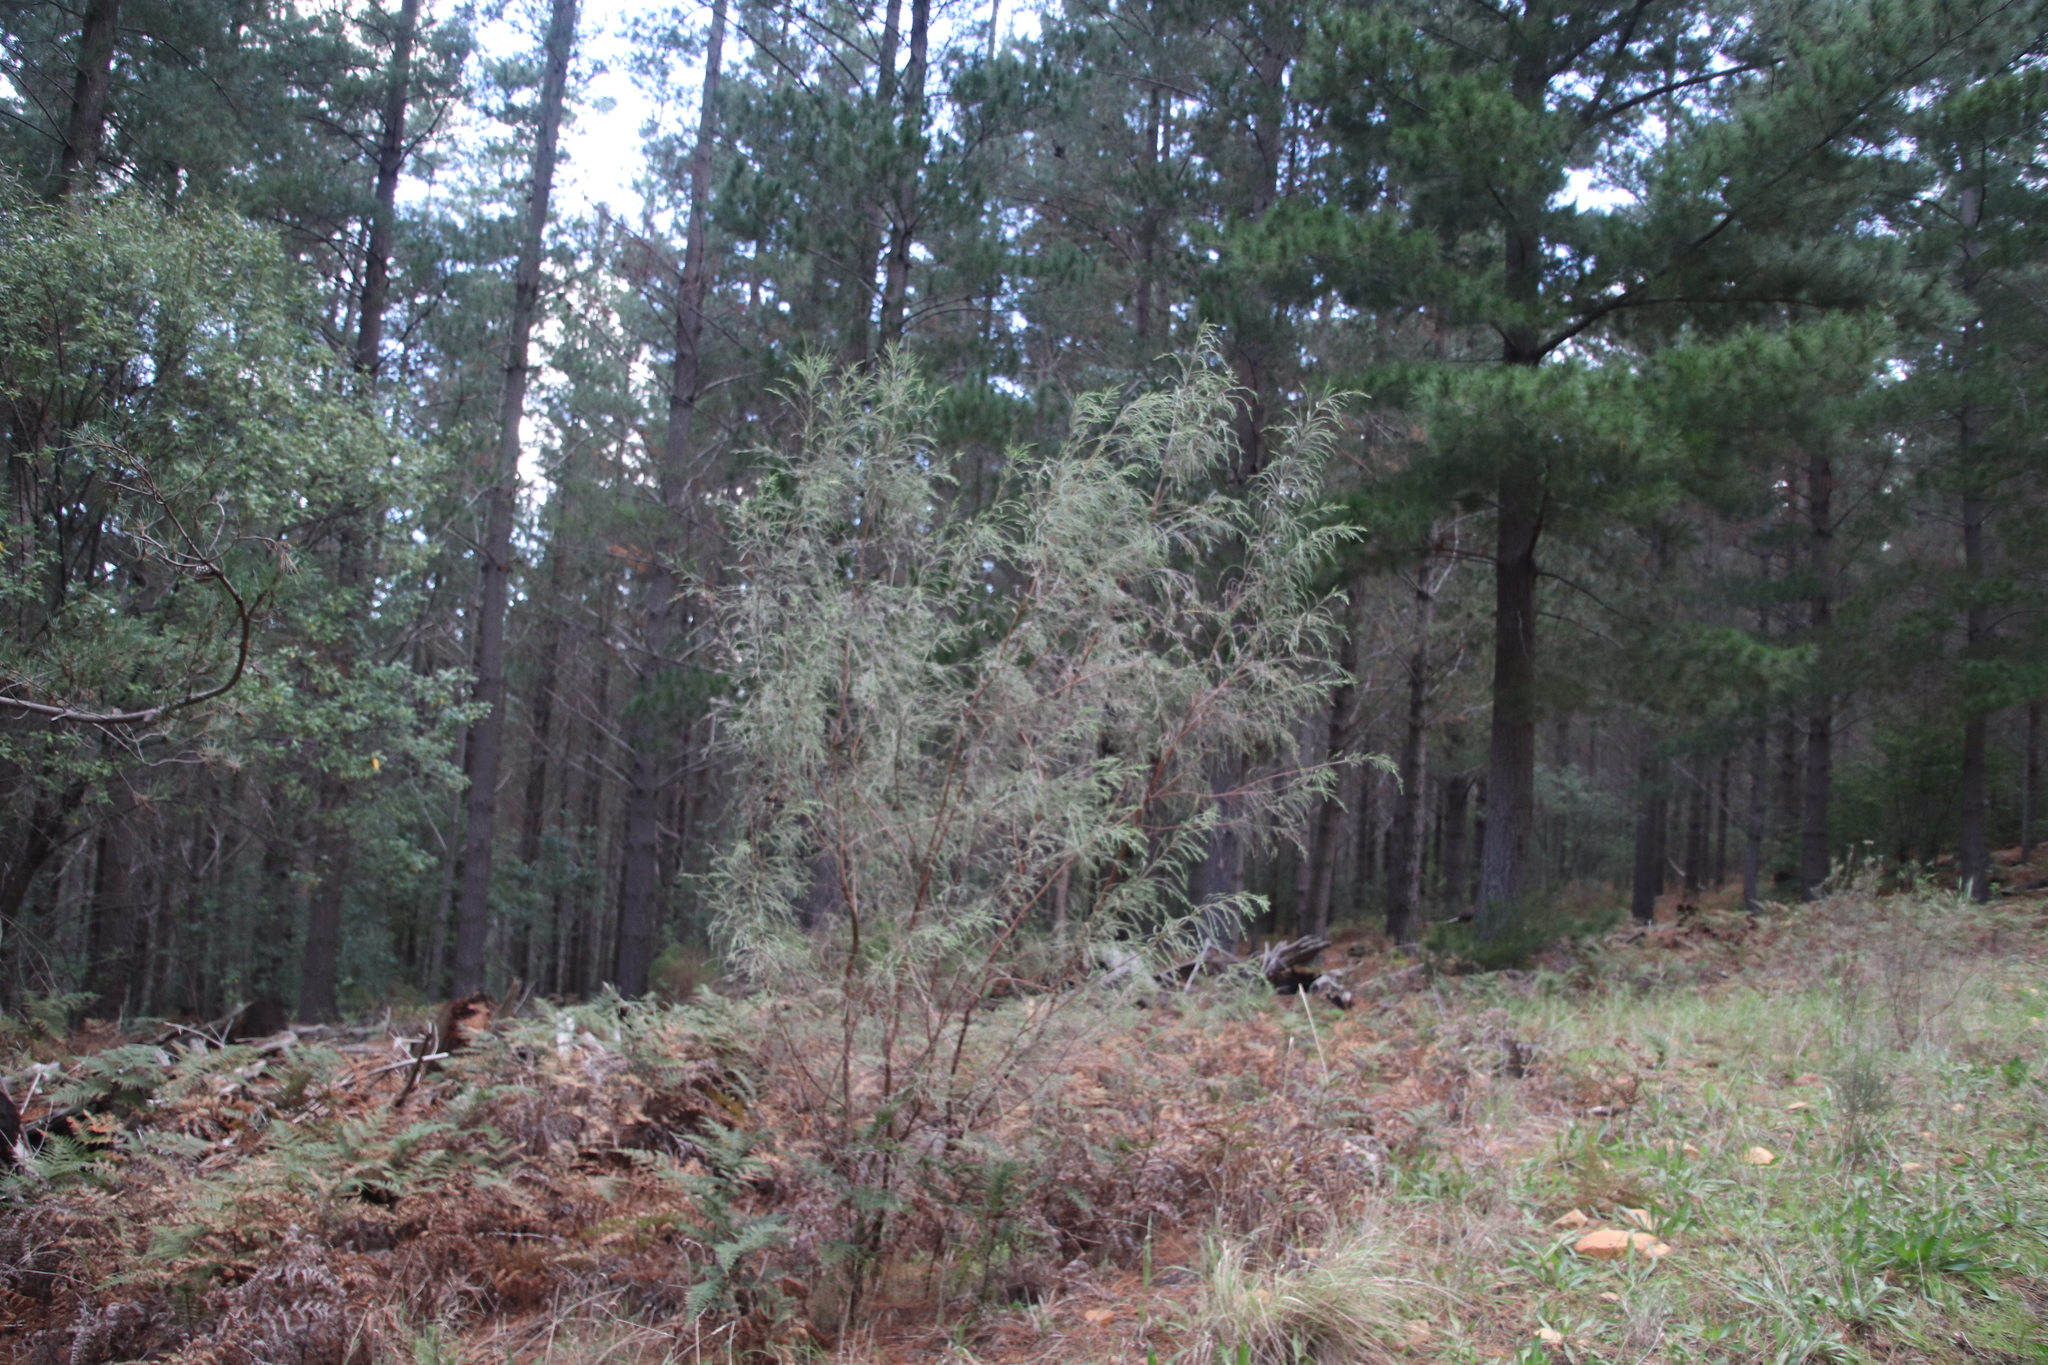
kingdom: Plantae
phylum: Tracheophyta
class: Magnoliopsida
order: Malvales
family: Thymelaeaceae
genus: Passerina
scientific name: Passerina corymbosa
